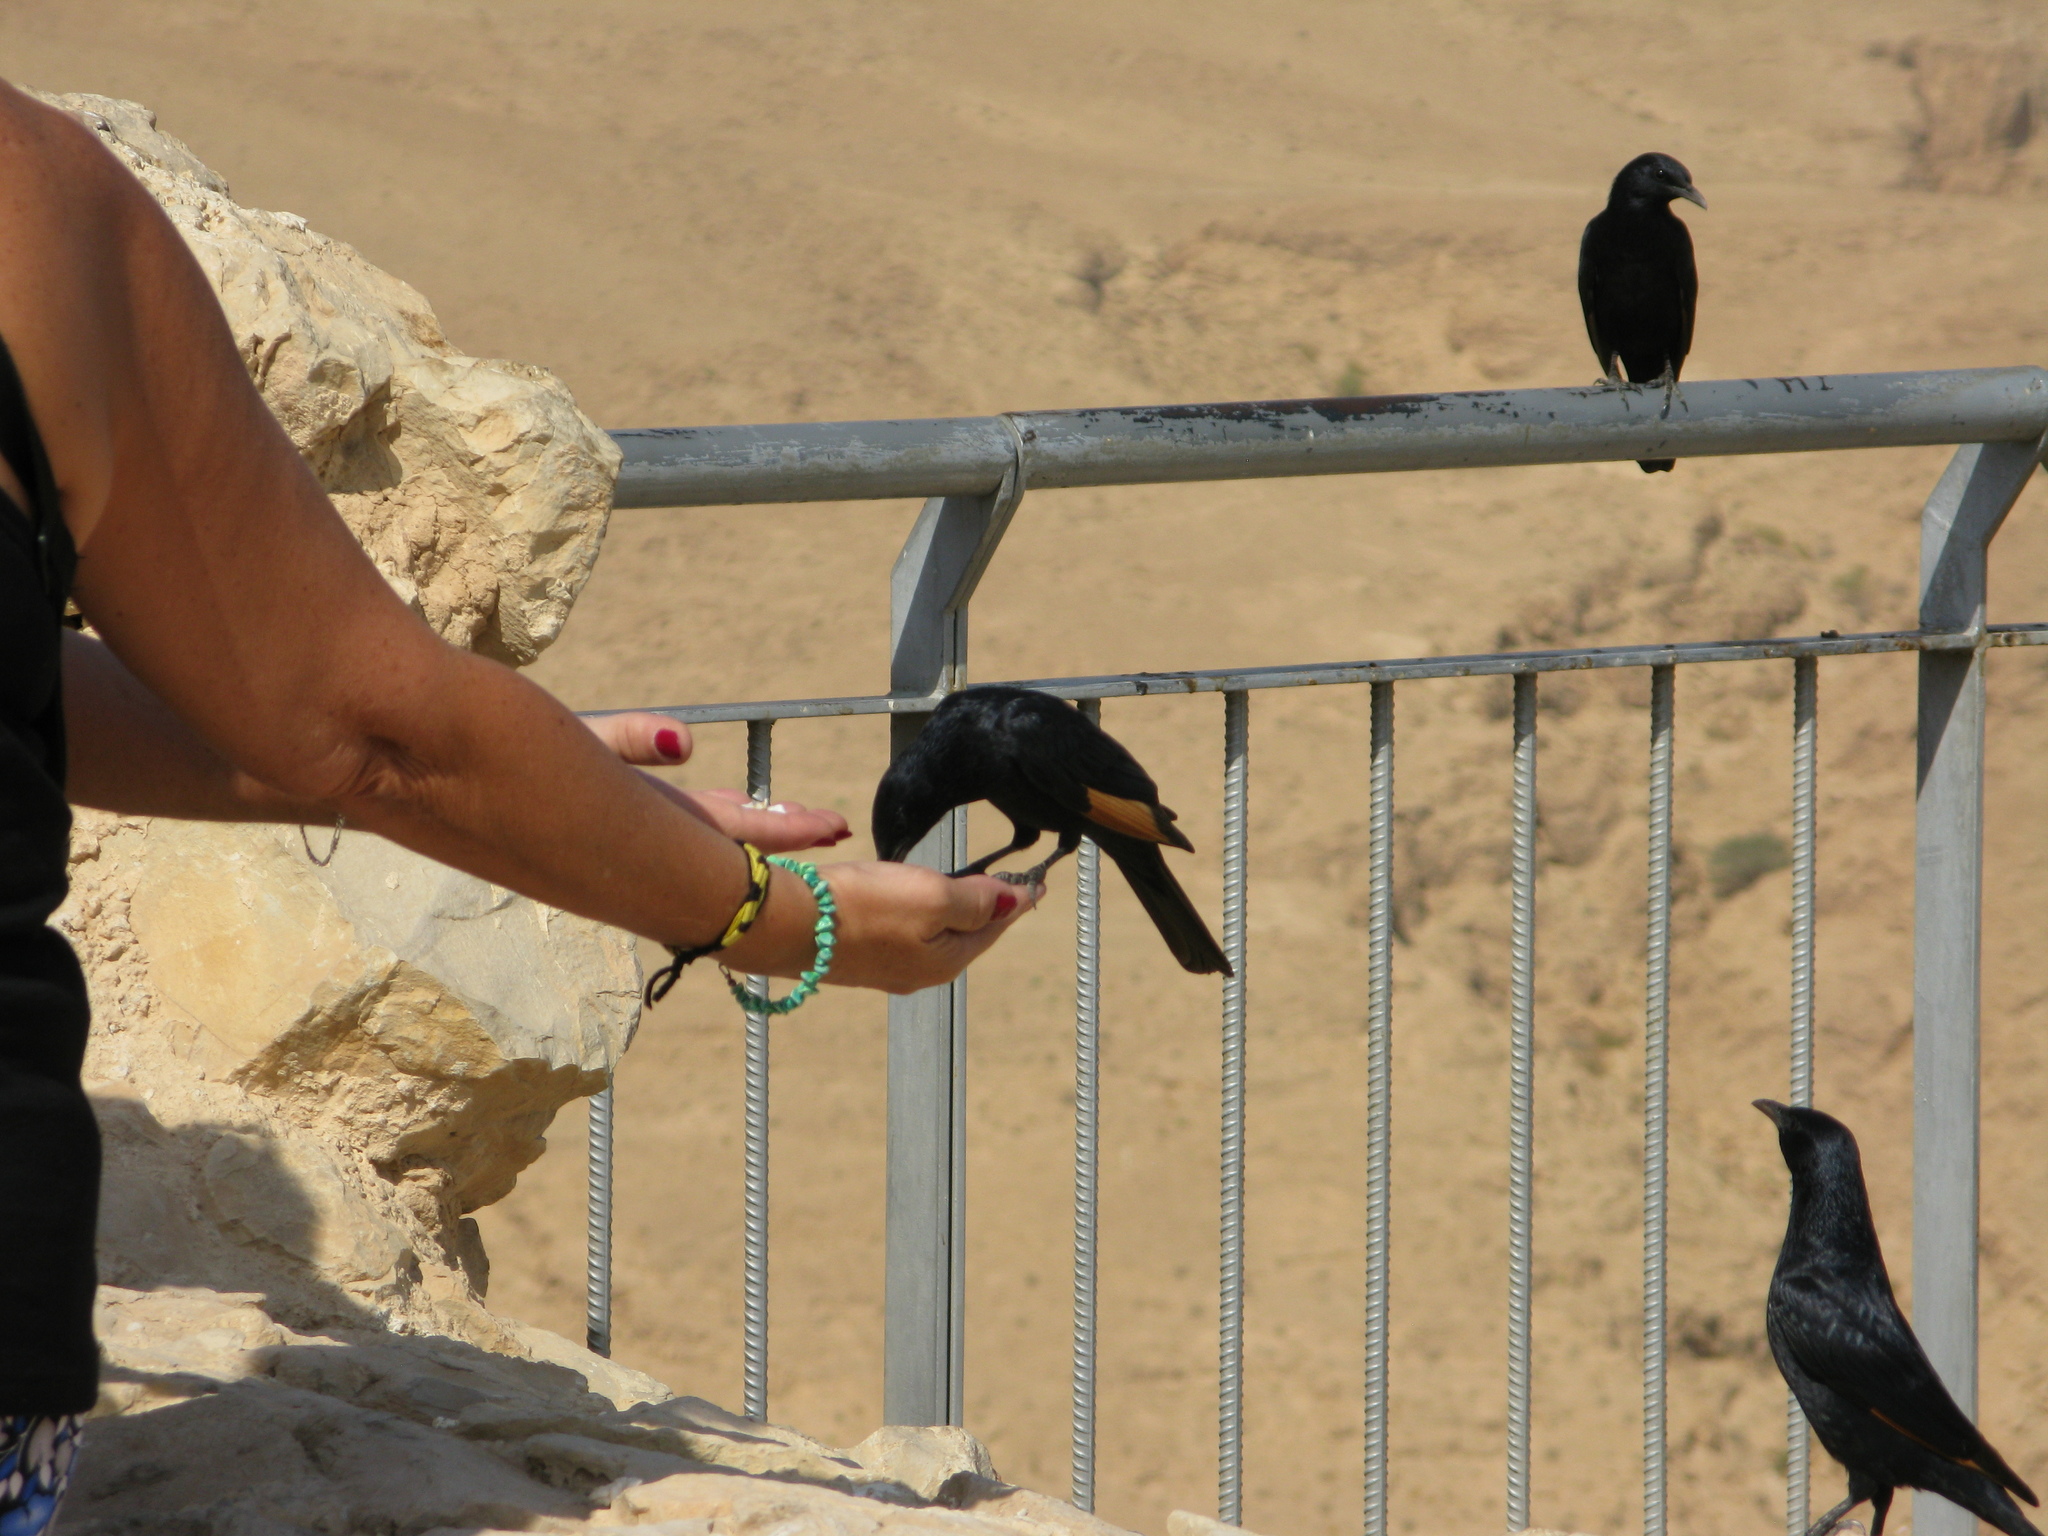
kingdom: Animalia
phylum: Chordata
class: Aves
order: Passeriformes
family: Sturnidae
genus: Onychognathus
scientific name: Onychognathus tristramii
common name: Tristram's starling
